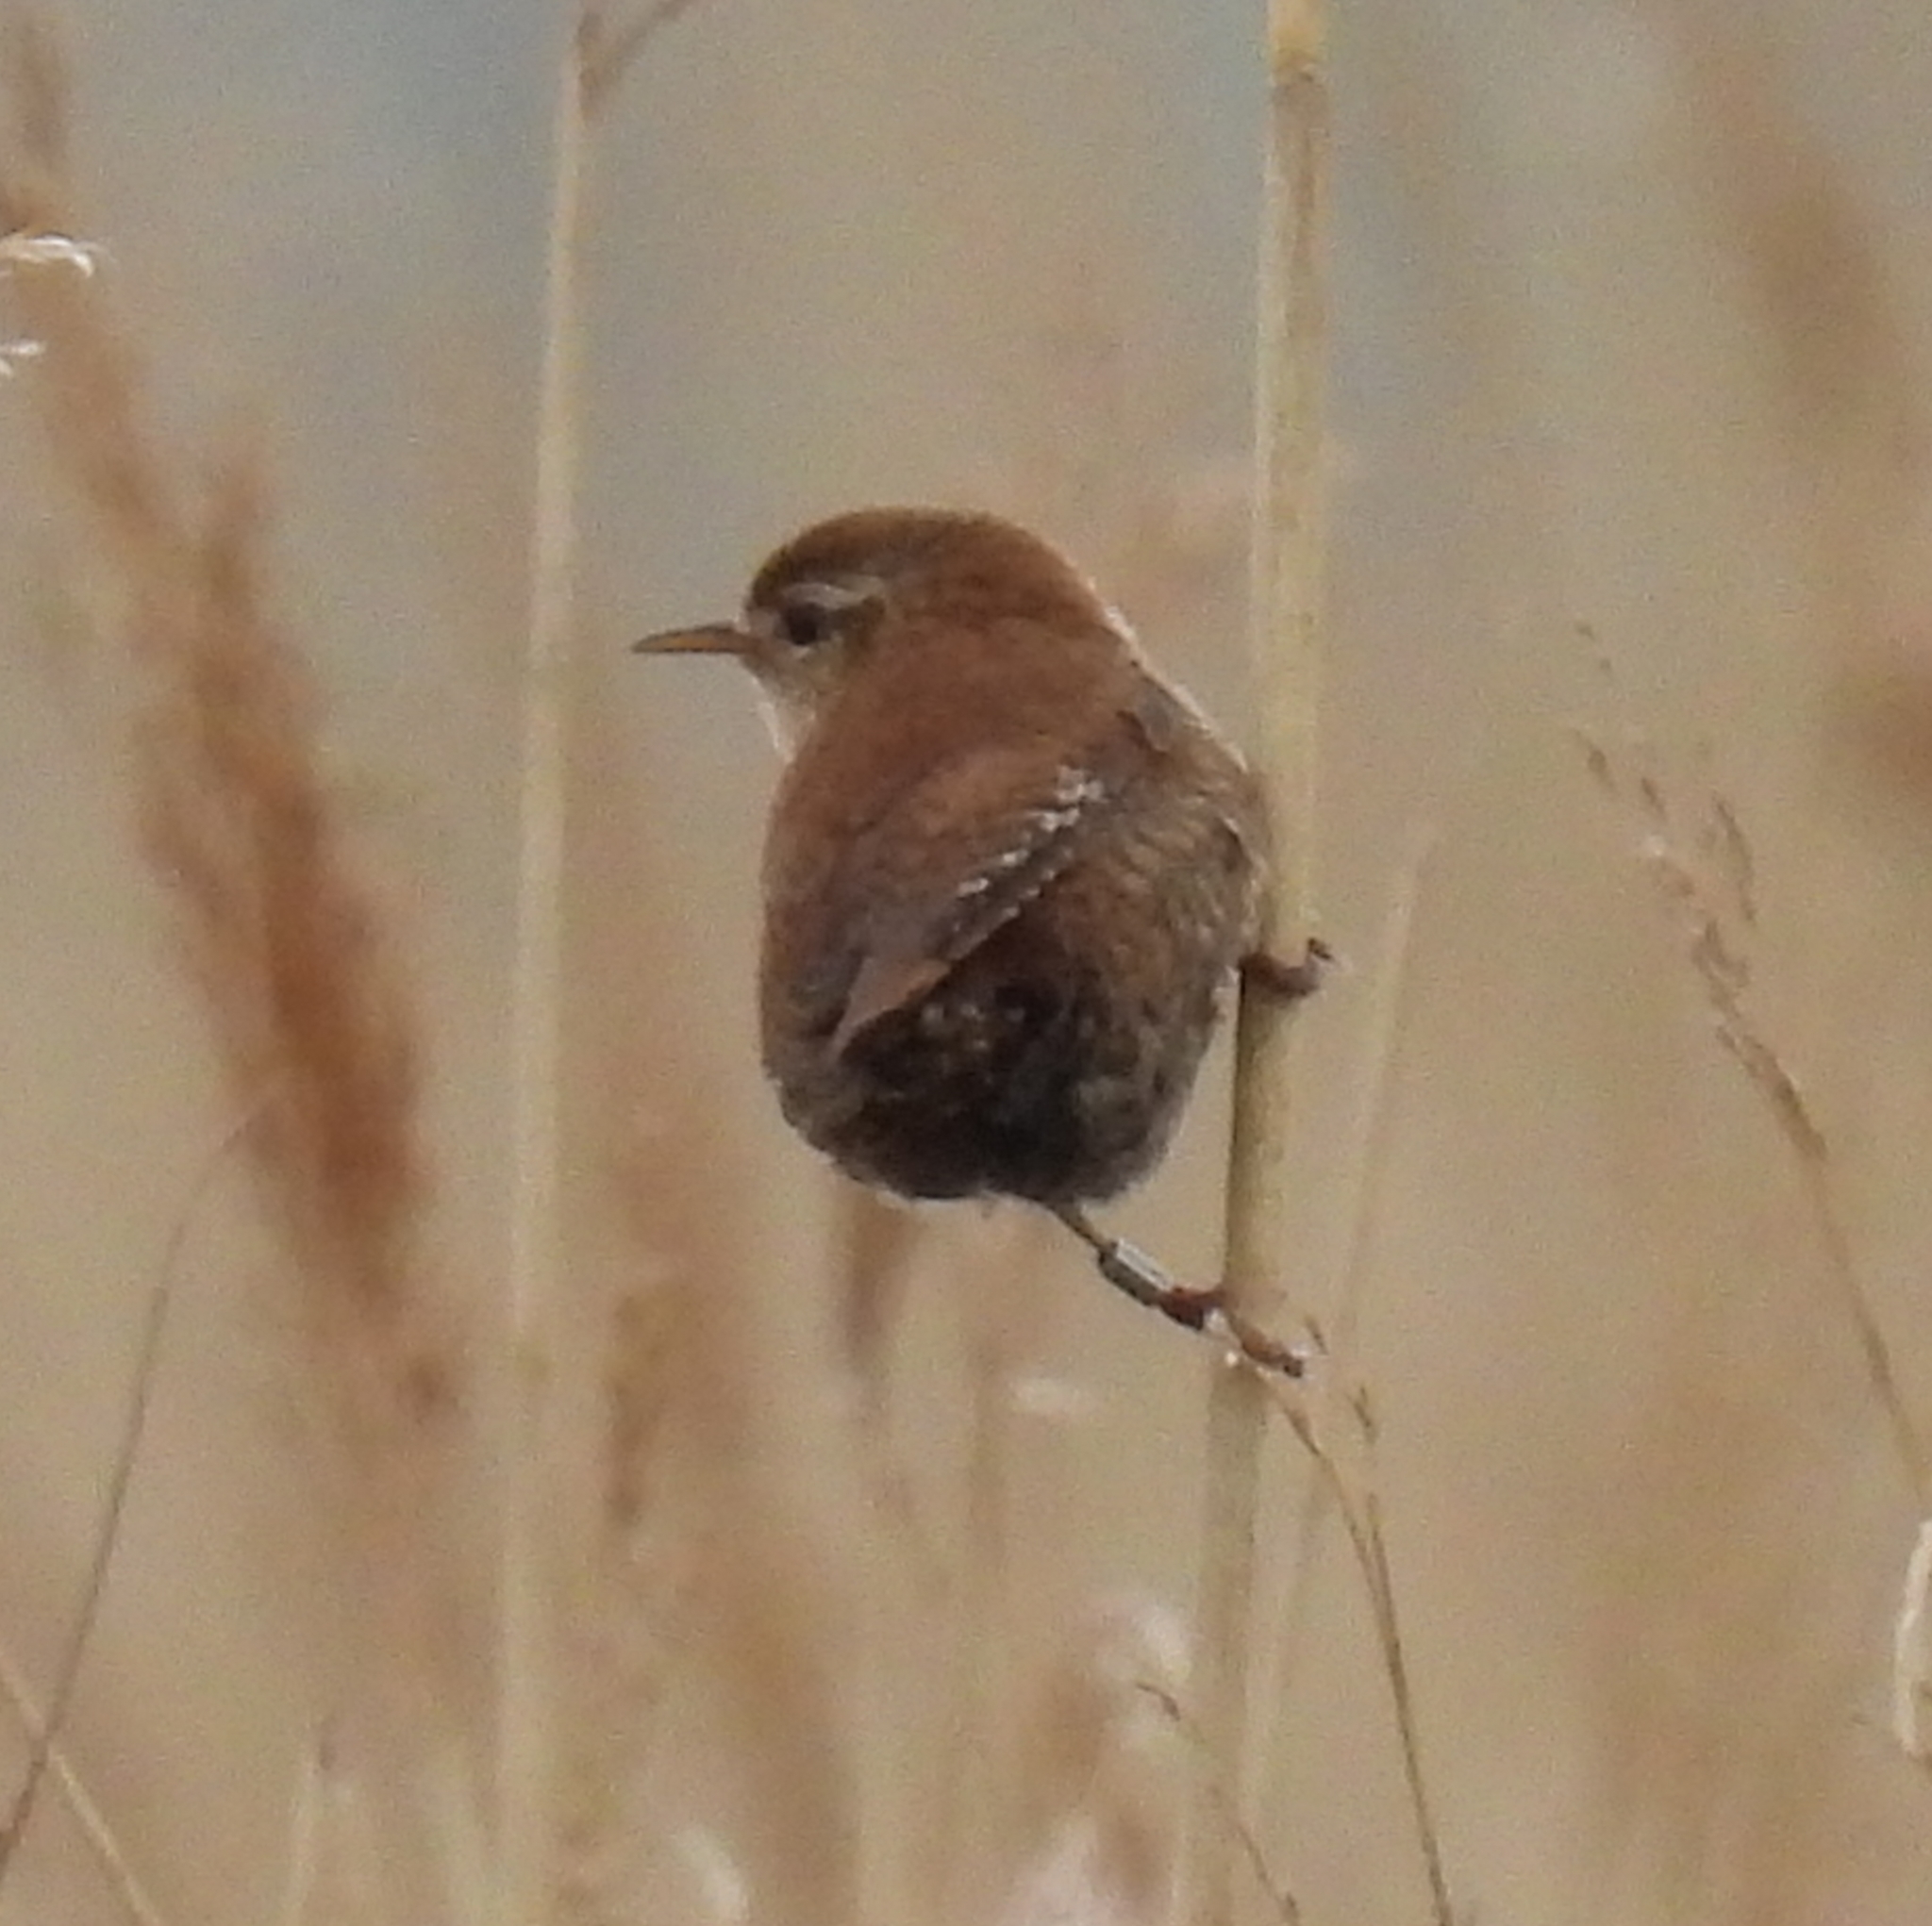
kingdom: Animalia
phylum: Chordata
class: Aves
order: Passeriformes
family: Troglodytidae
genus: Troglodytes
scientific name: Troglodytes troglodytes
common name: Eurasian wren
